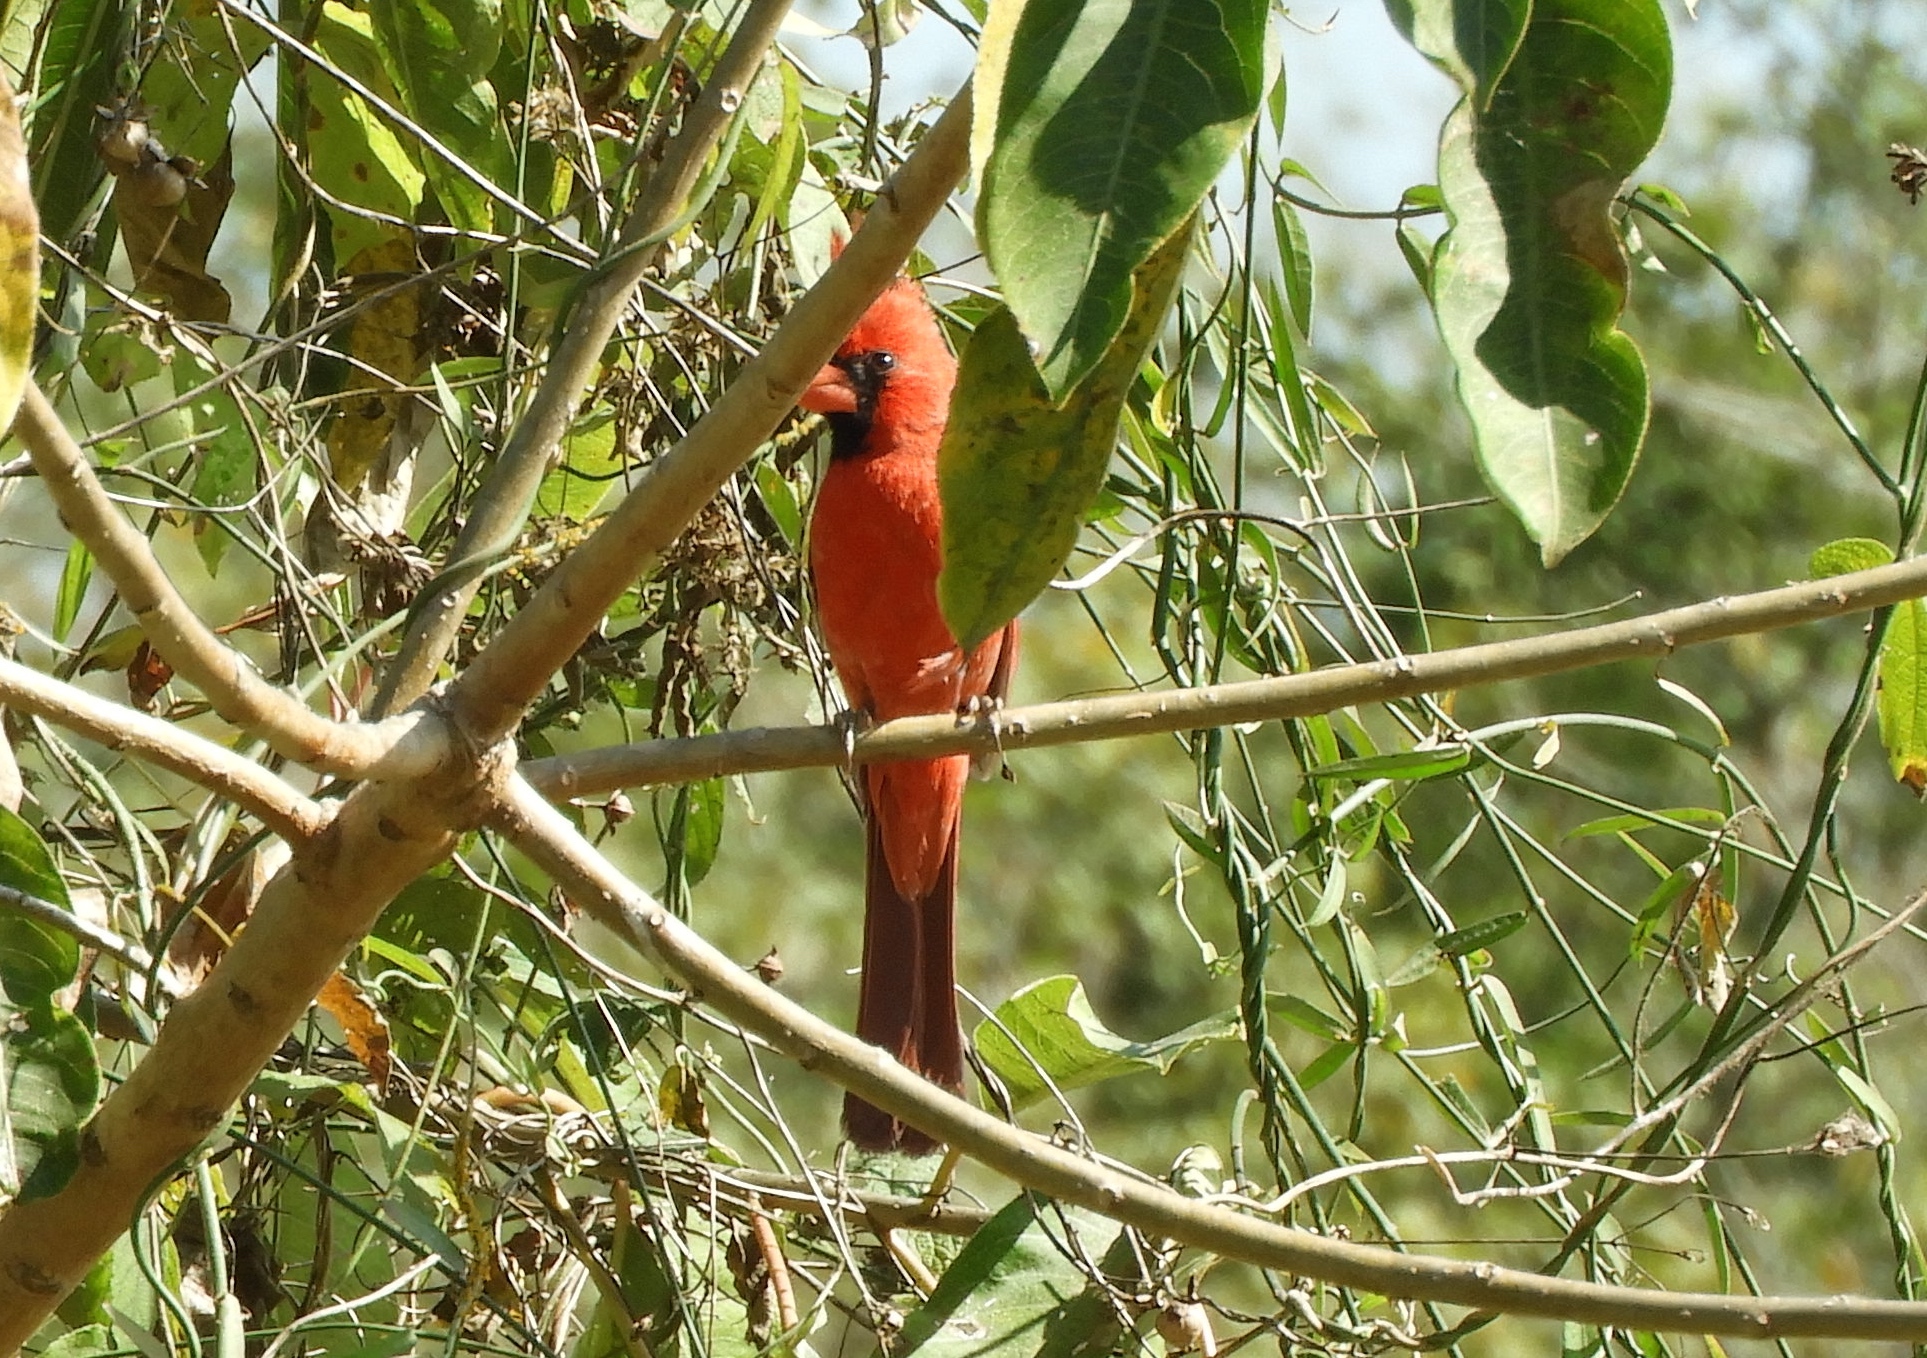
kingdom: Animalia
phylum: Chordata
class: Aves
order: Passeriformes
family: Cardinalidae
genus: Cardinalis
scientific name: Cardinalis cardinalis
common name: Northern cardinal
